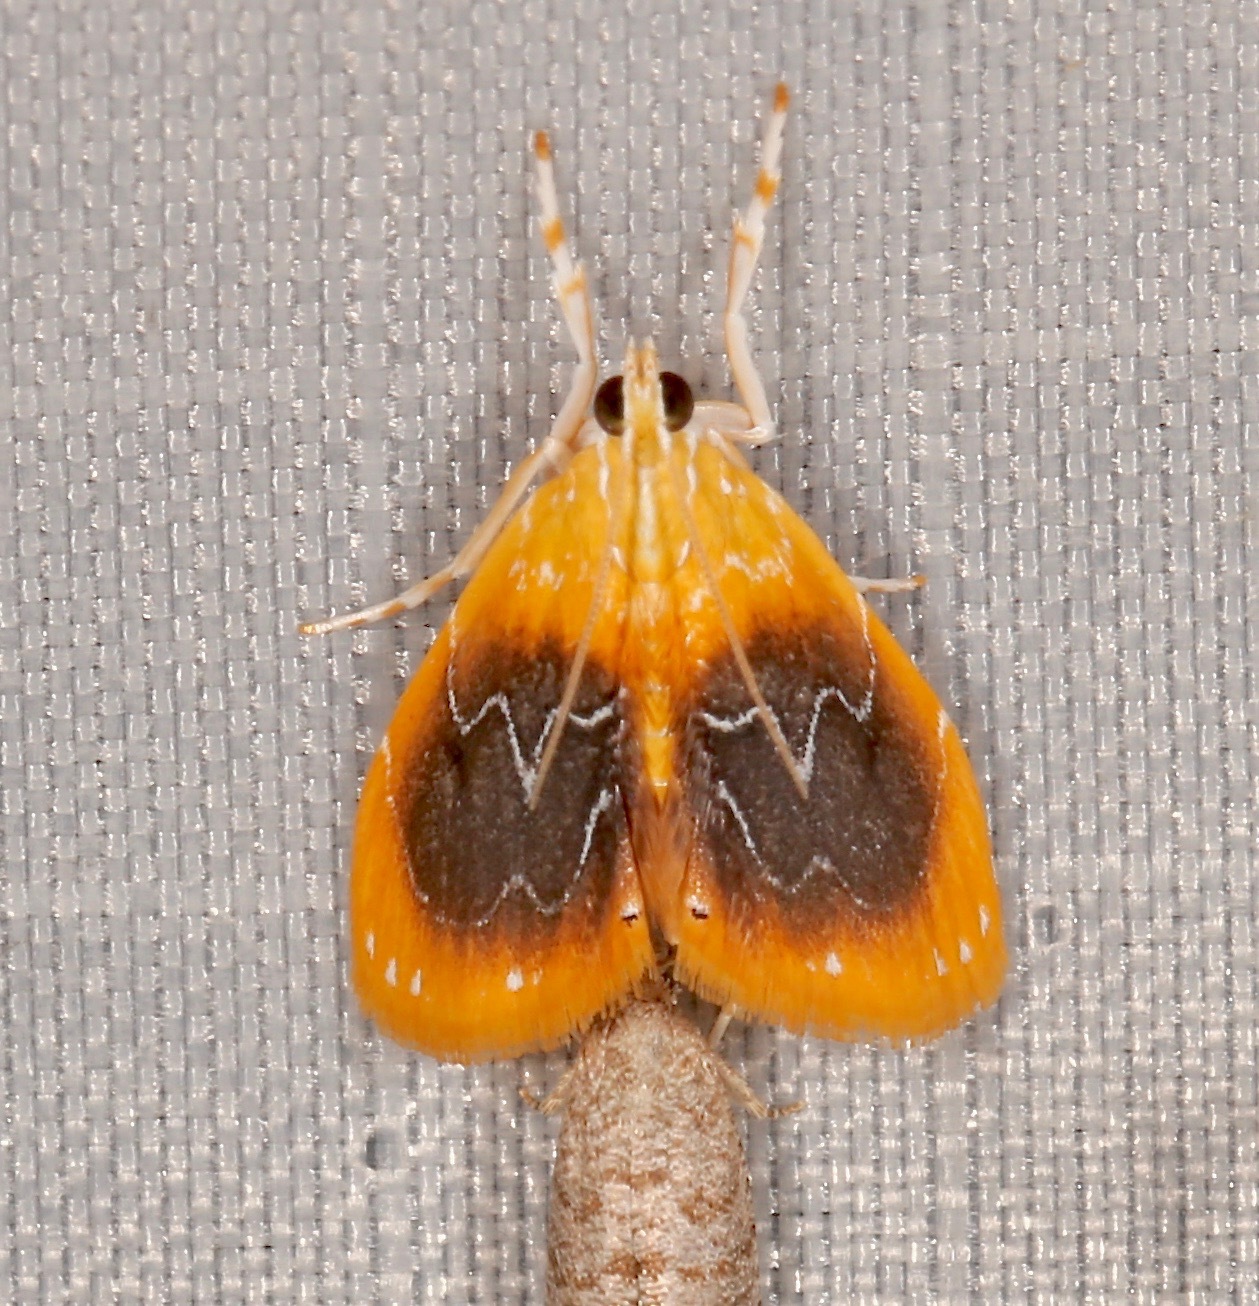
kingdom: Animalia
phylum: Arthropoda
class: Insecta
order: Lepidoptera
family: Crambidae
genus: Glaphyria
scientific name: Glaphyria cappsi
